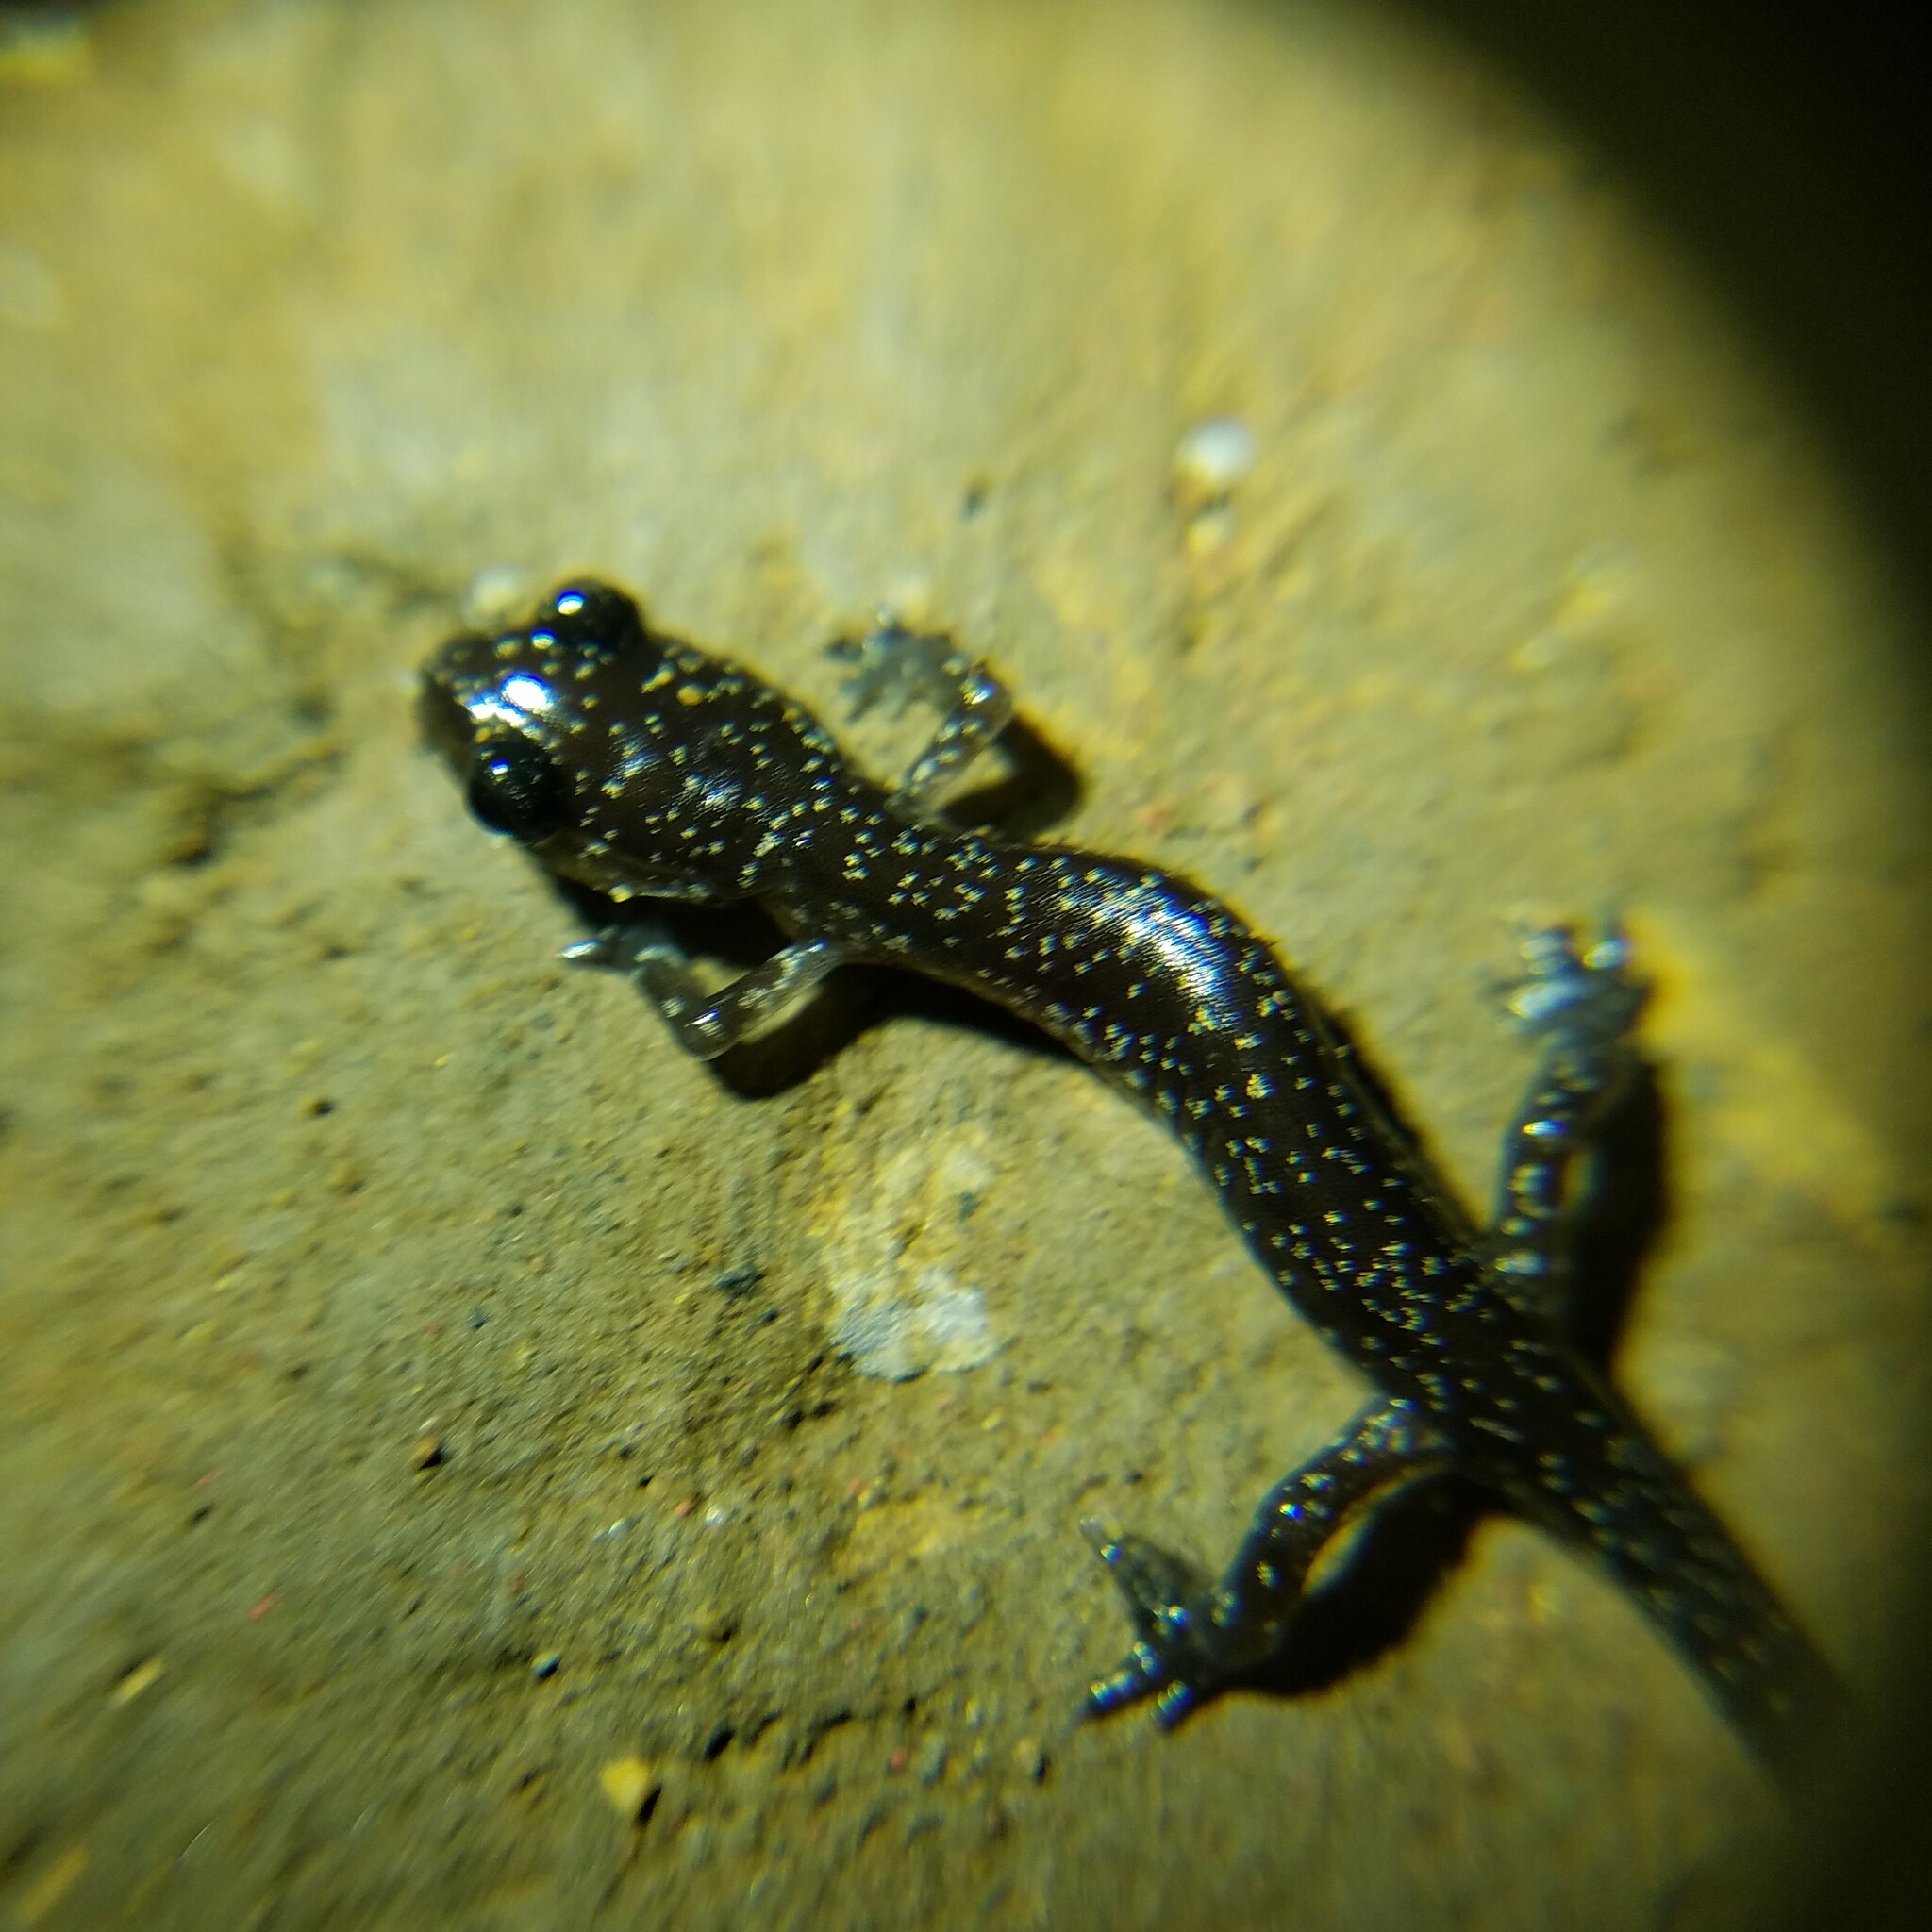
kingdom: Animalia
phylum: Chordata
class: Amphibia
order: Caudata
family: Plethodontidae
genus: Plethodon
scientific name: Plethodon glutinosus
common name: Northern slimy salamander
